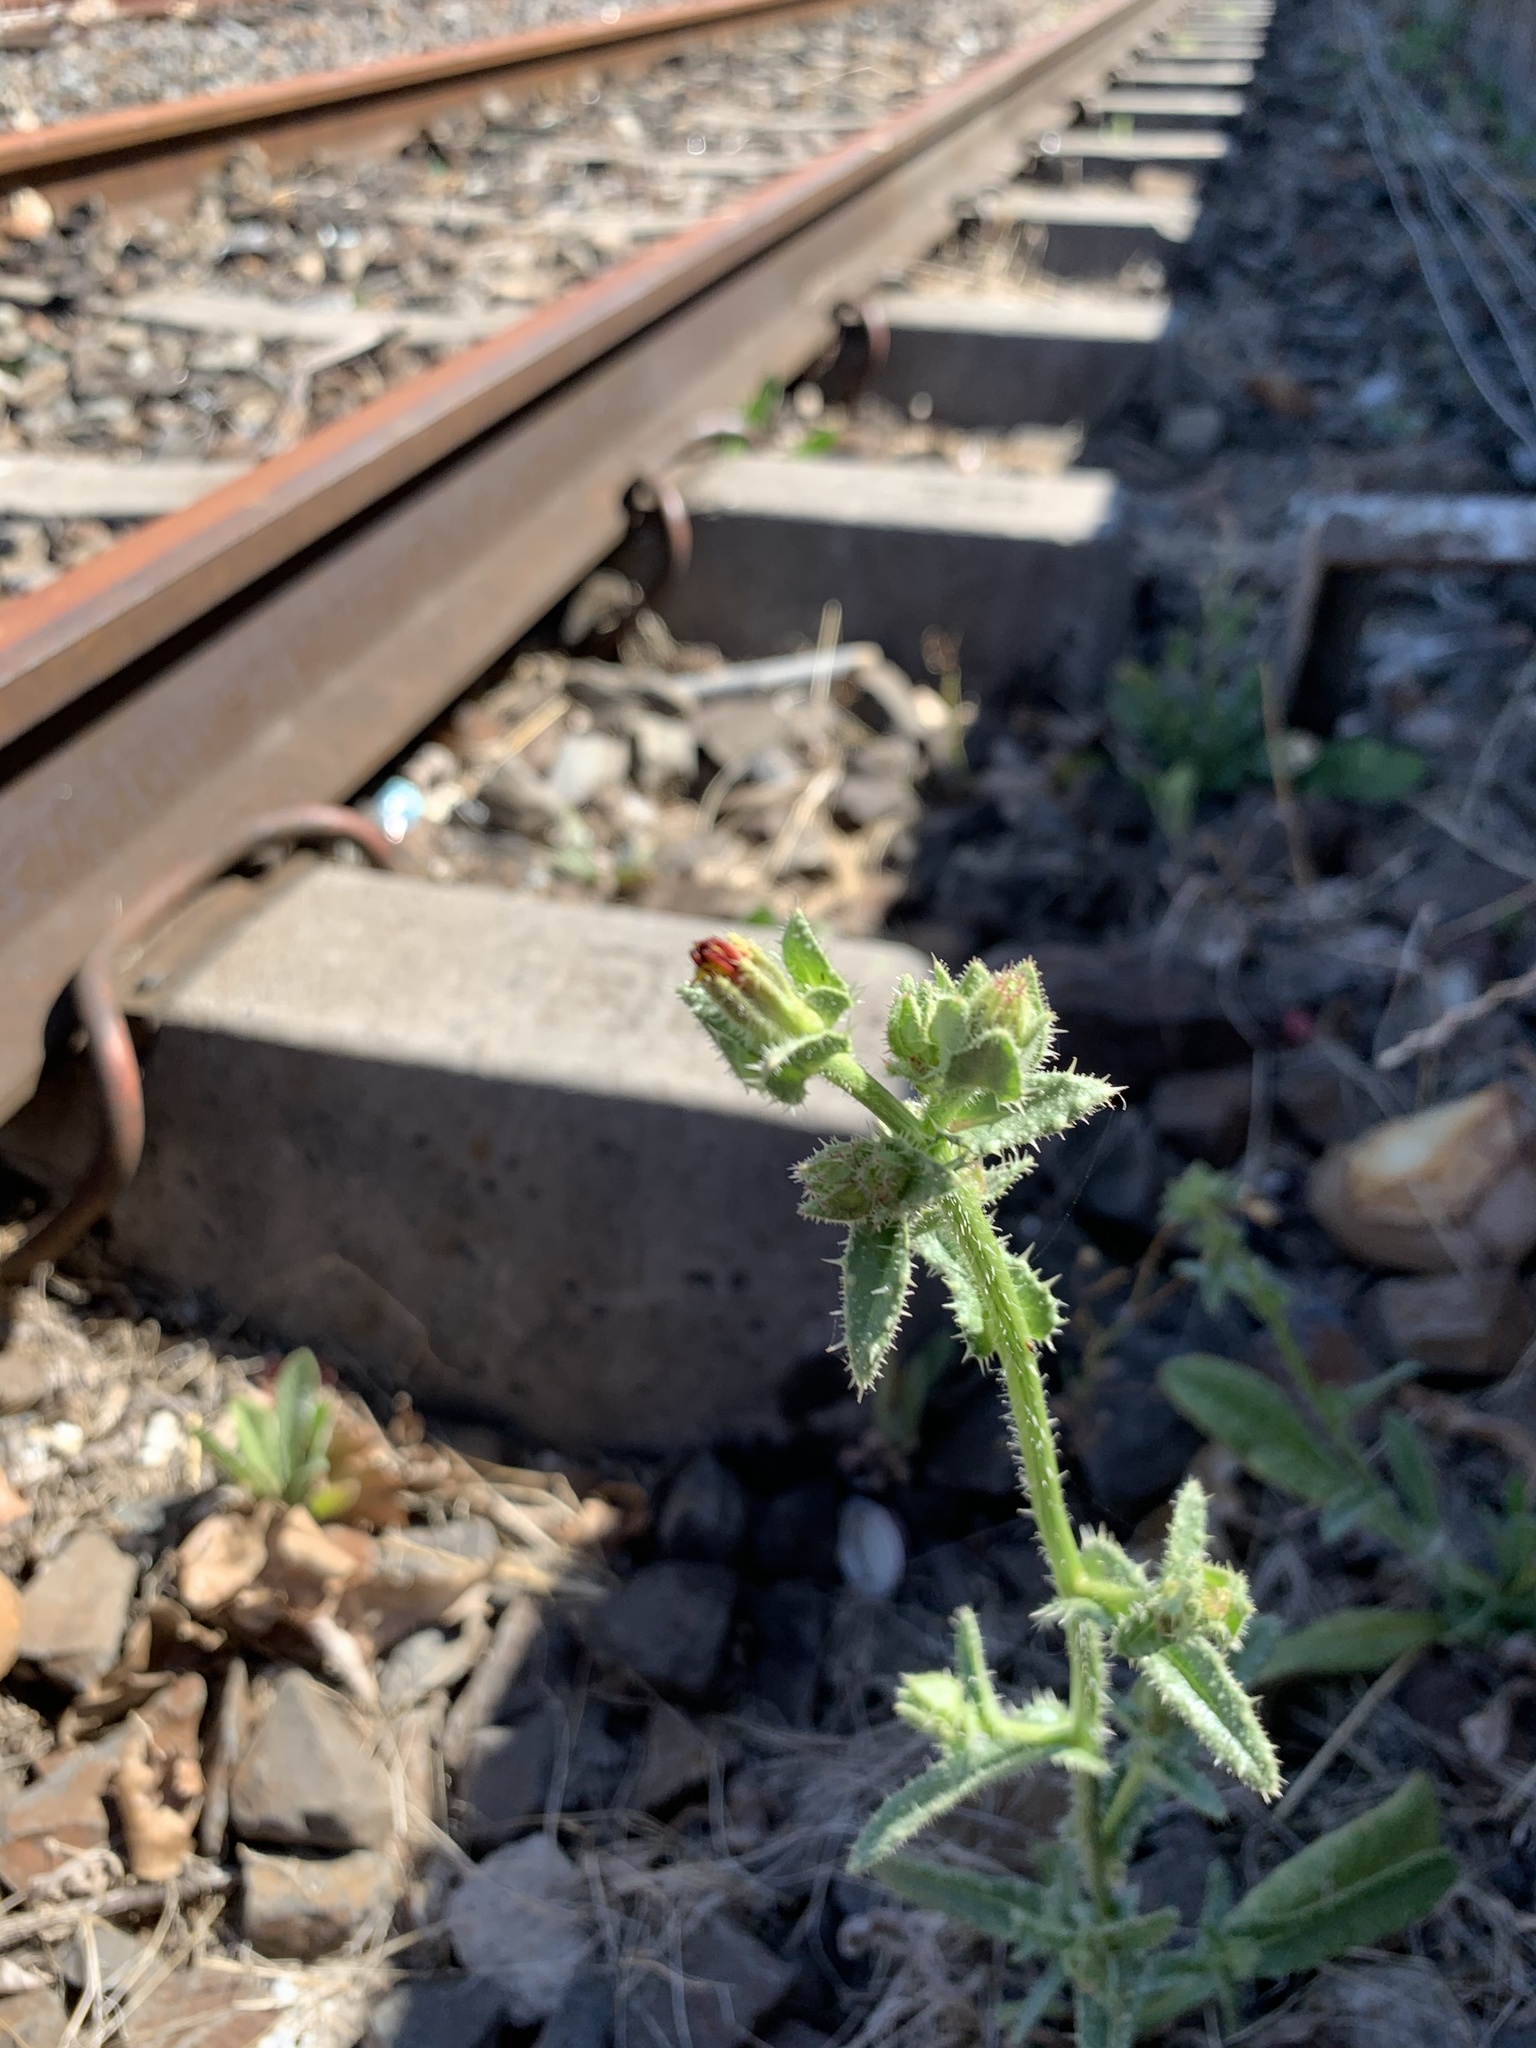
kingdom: Plantae
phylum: Tracheophyta
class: Magnoliopsida
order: Asterales
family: Asteraceae
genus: Helminthotheca
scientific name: Helminthotheca echioides
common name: Ox-tongue
